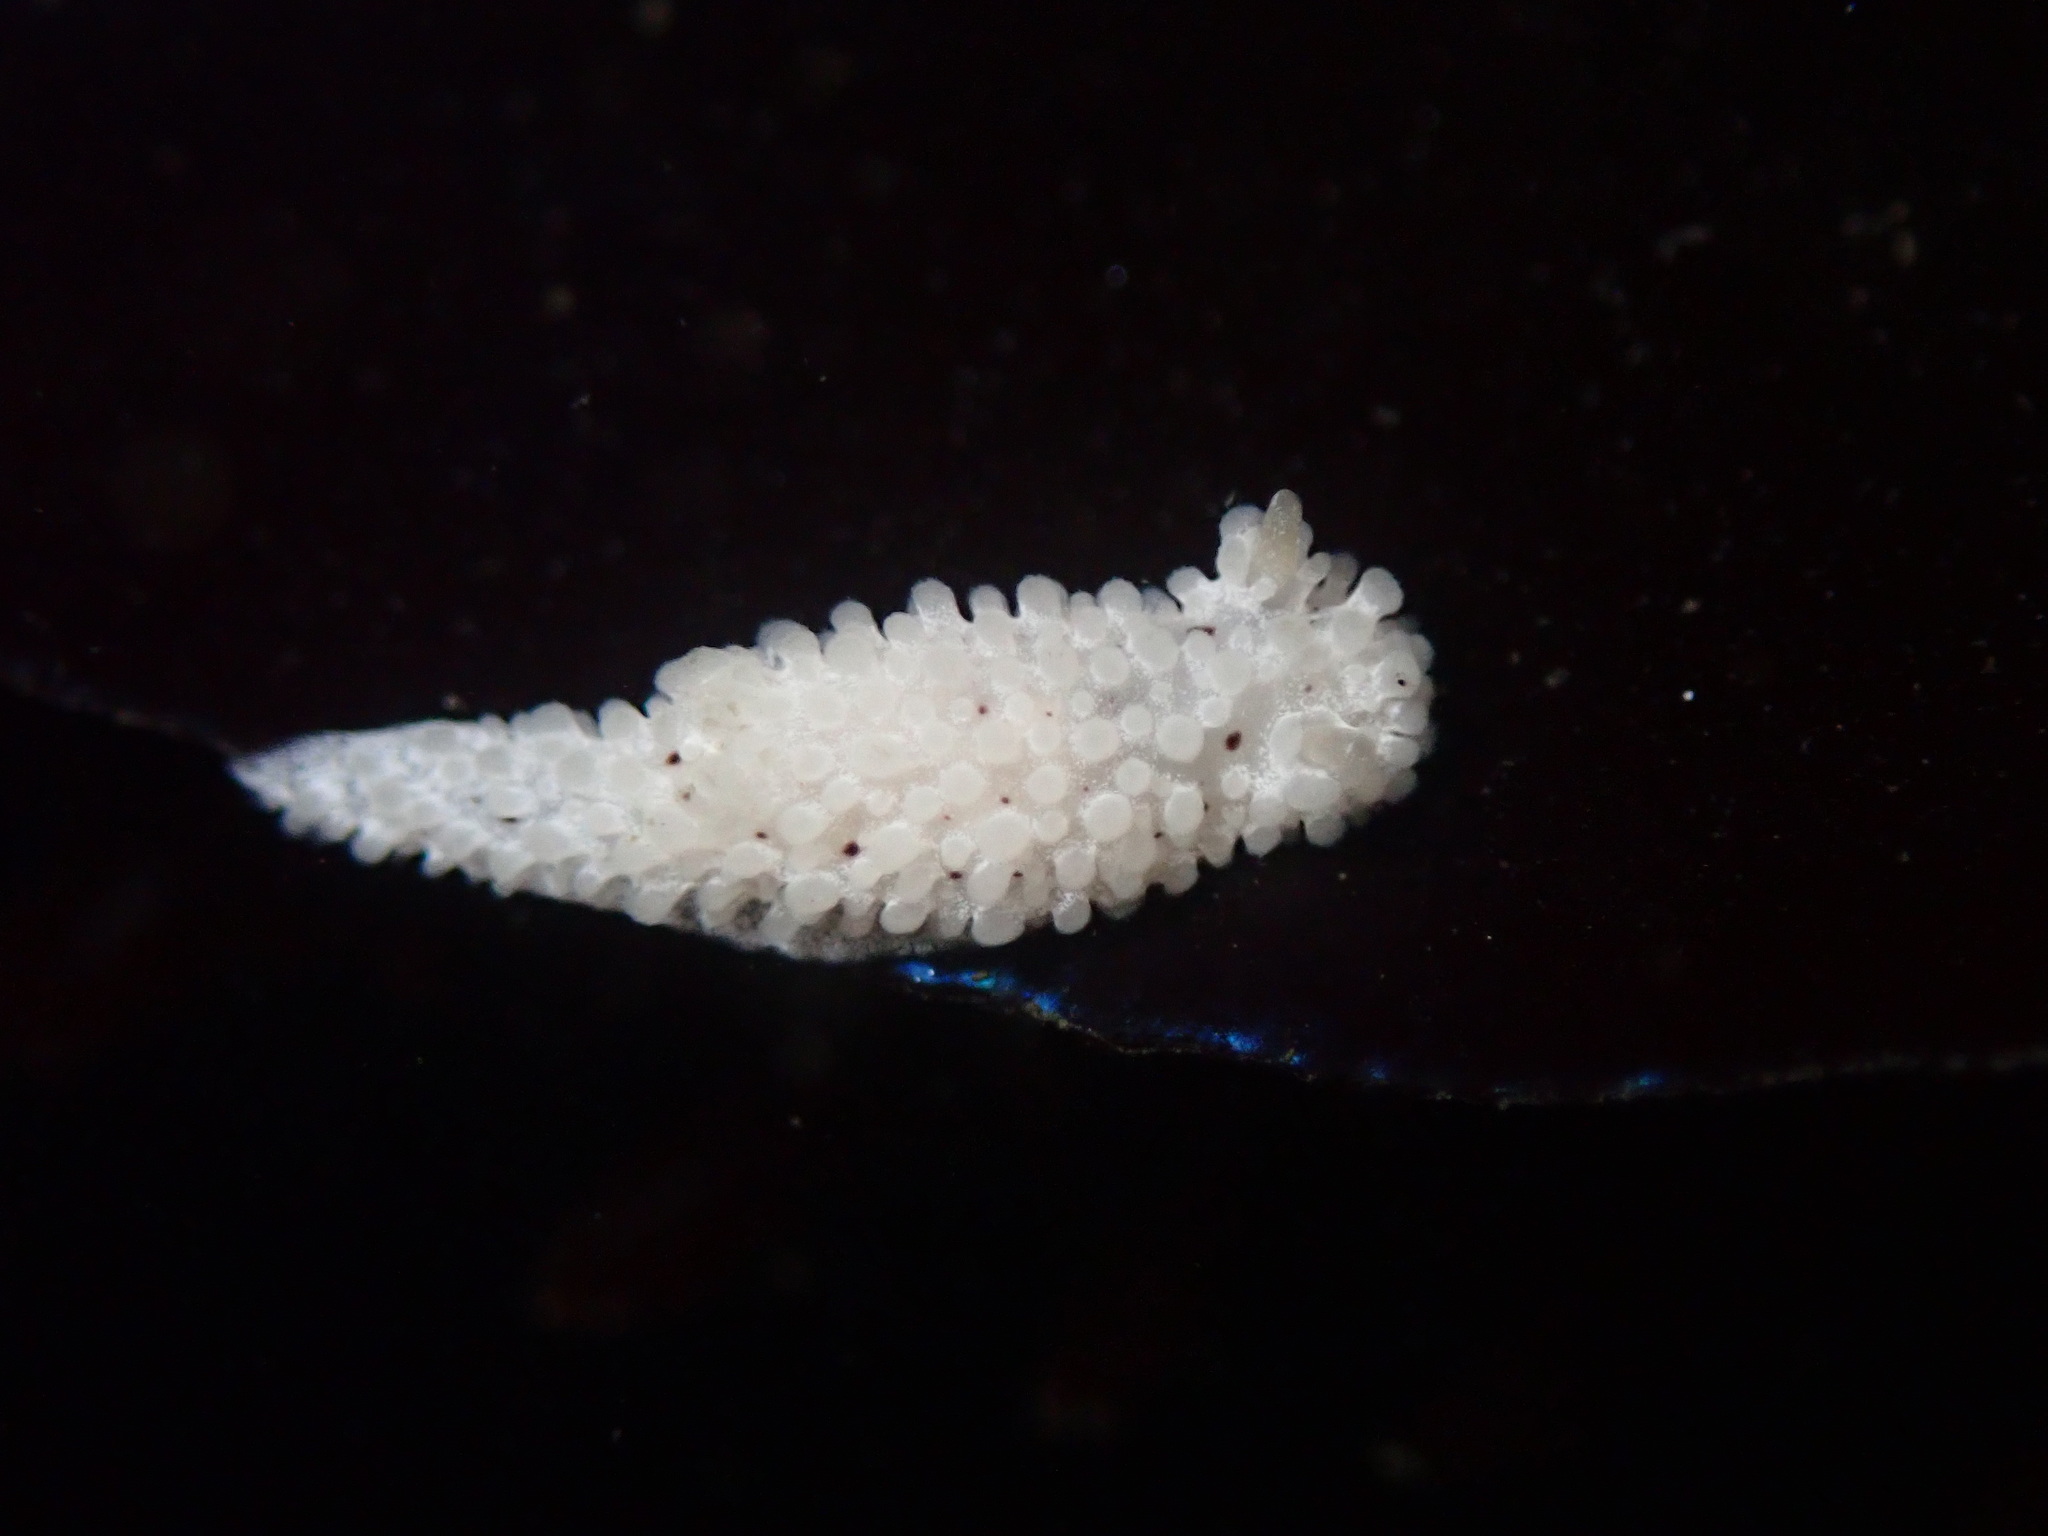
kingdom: Animalia
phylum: Mollusca
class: Gastropoda
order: Nudibranchia
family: Aegiridae
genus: Aegires
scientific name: Aegires albopunctatus
